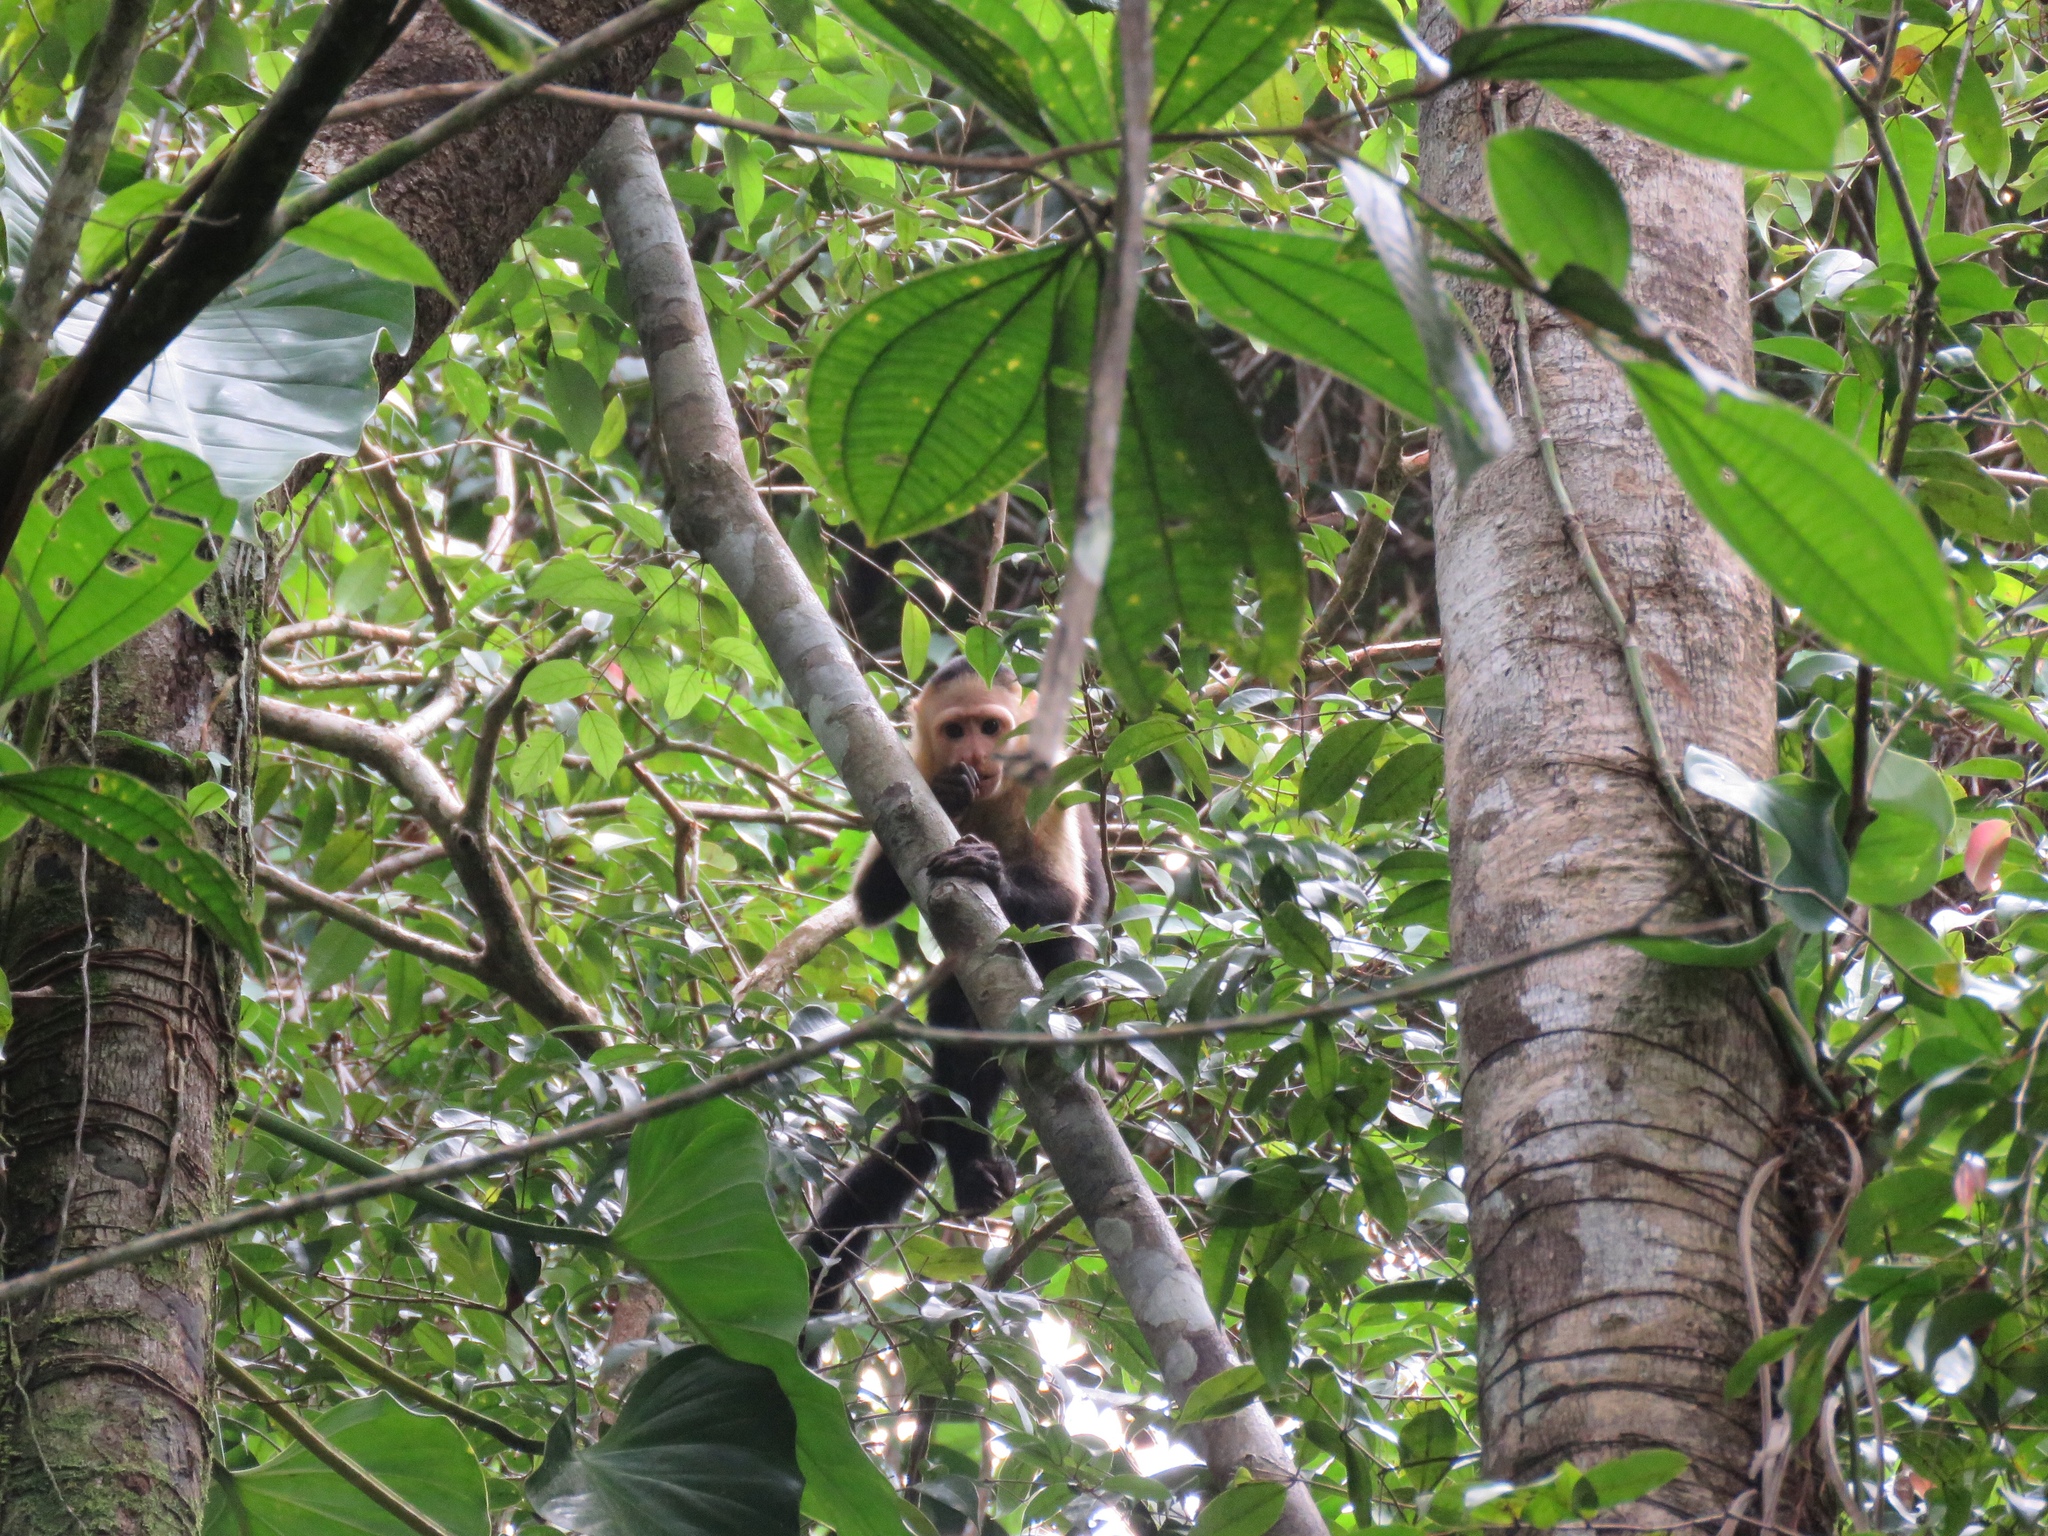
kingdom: Animalia
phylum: Chordata
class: Mammalia
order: Primates
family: Cebidae
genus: Cebus
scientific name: Cebus imitator
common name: Panamanian white-faced capuchin
